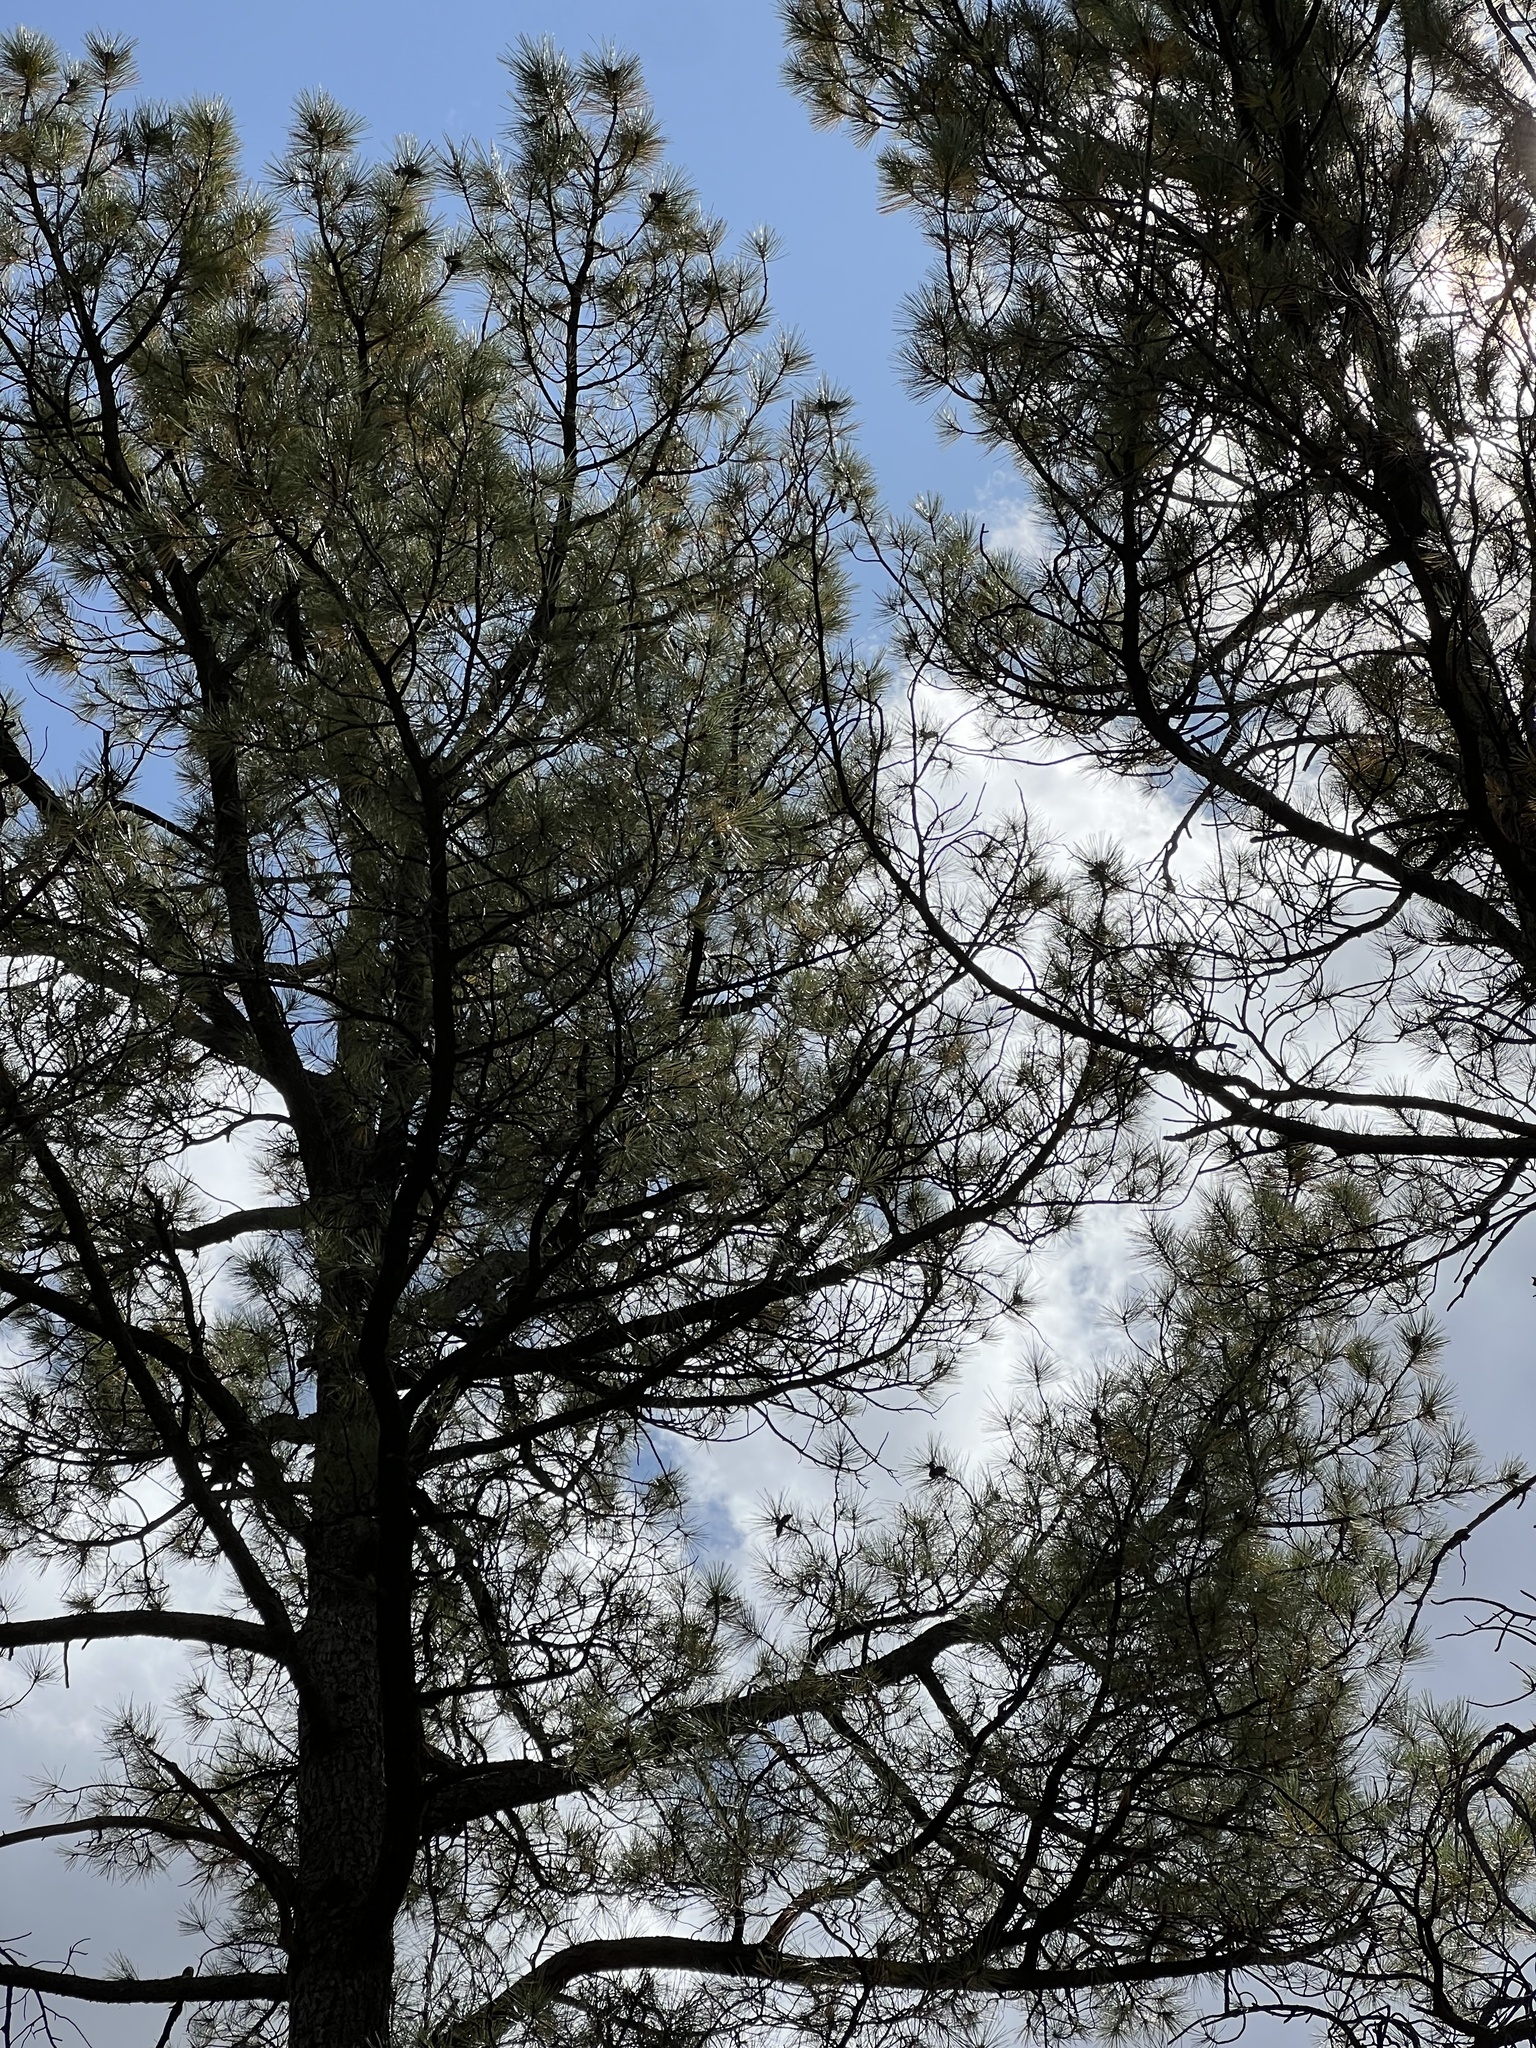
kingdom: Plantae
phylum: Tracheophyta
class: Pinopsida
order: Pinales
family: Pinaceae
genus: Pinus
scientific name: Pinus ponderosa
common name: Western yellow-pine
